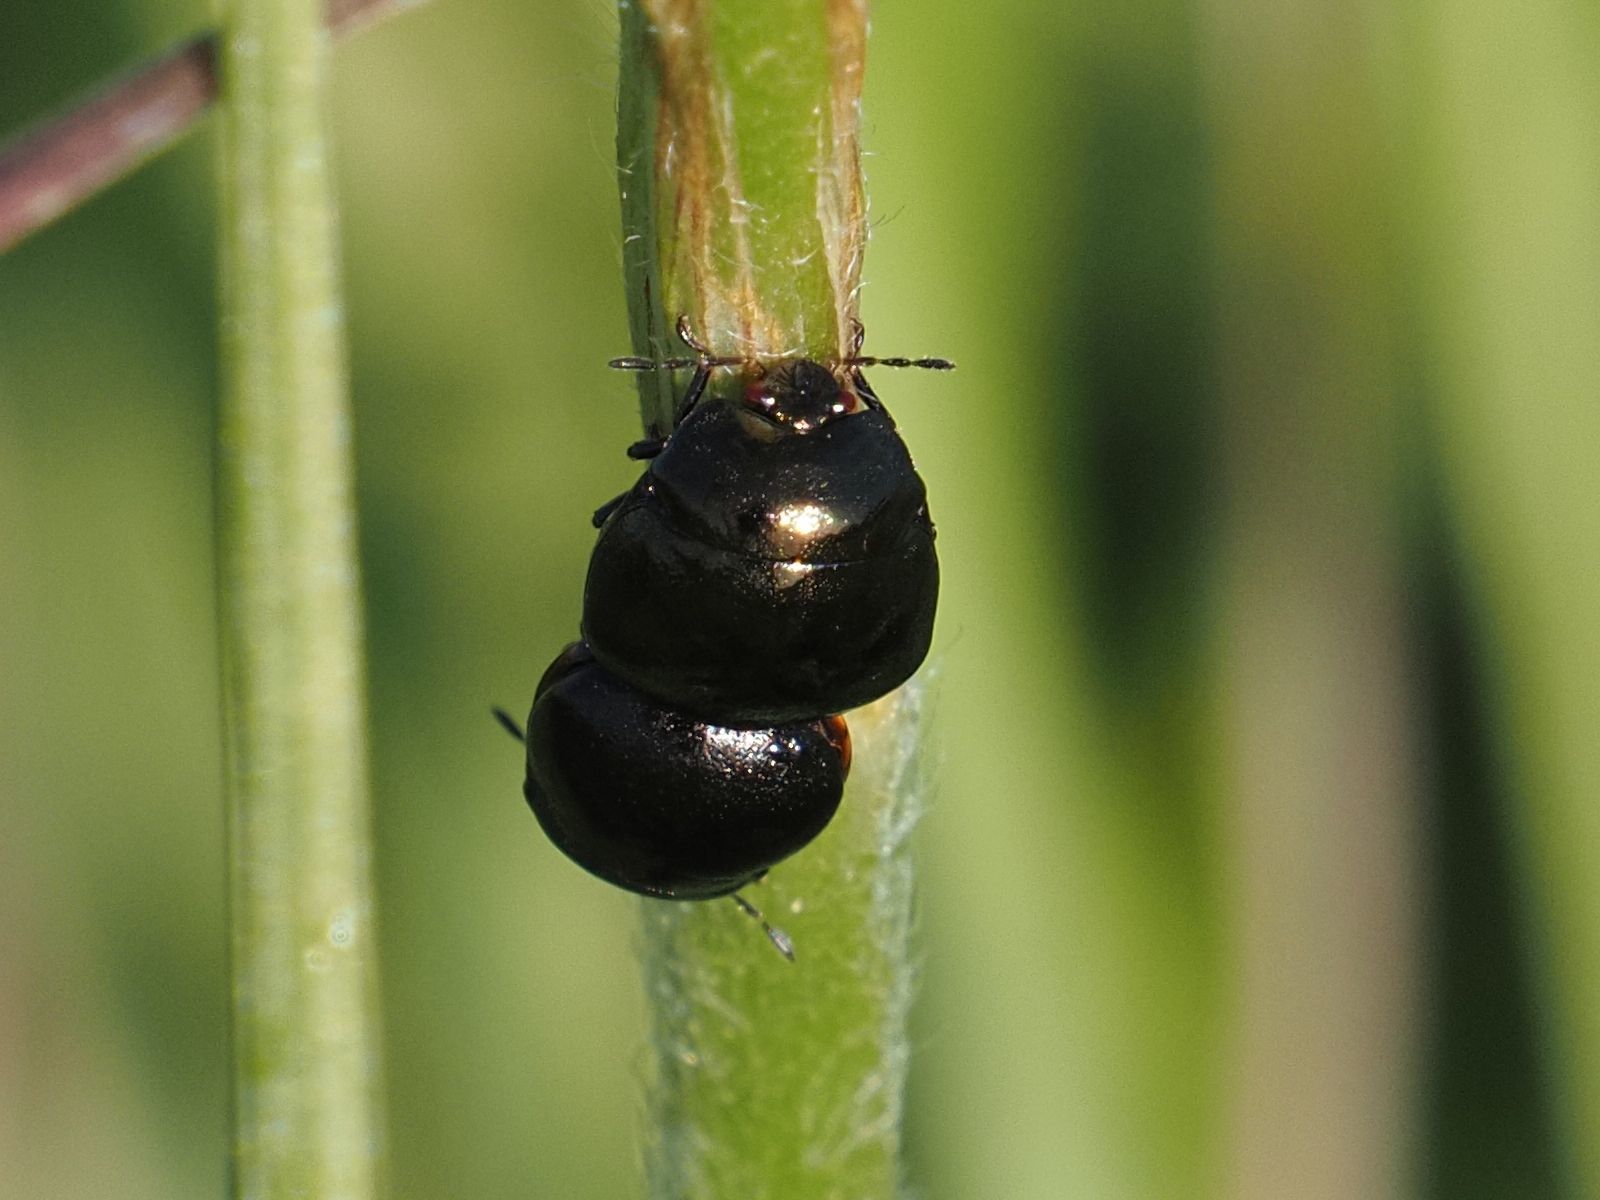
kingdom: Animalia
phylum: Arthropoda
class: Insecta
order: Hemiptera
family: Plataspidae
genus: Coptosoma
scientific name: Coptosoma scutellatum
